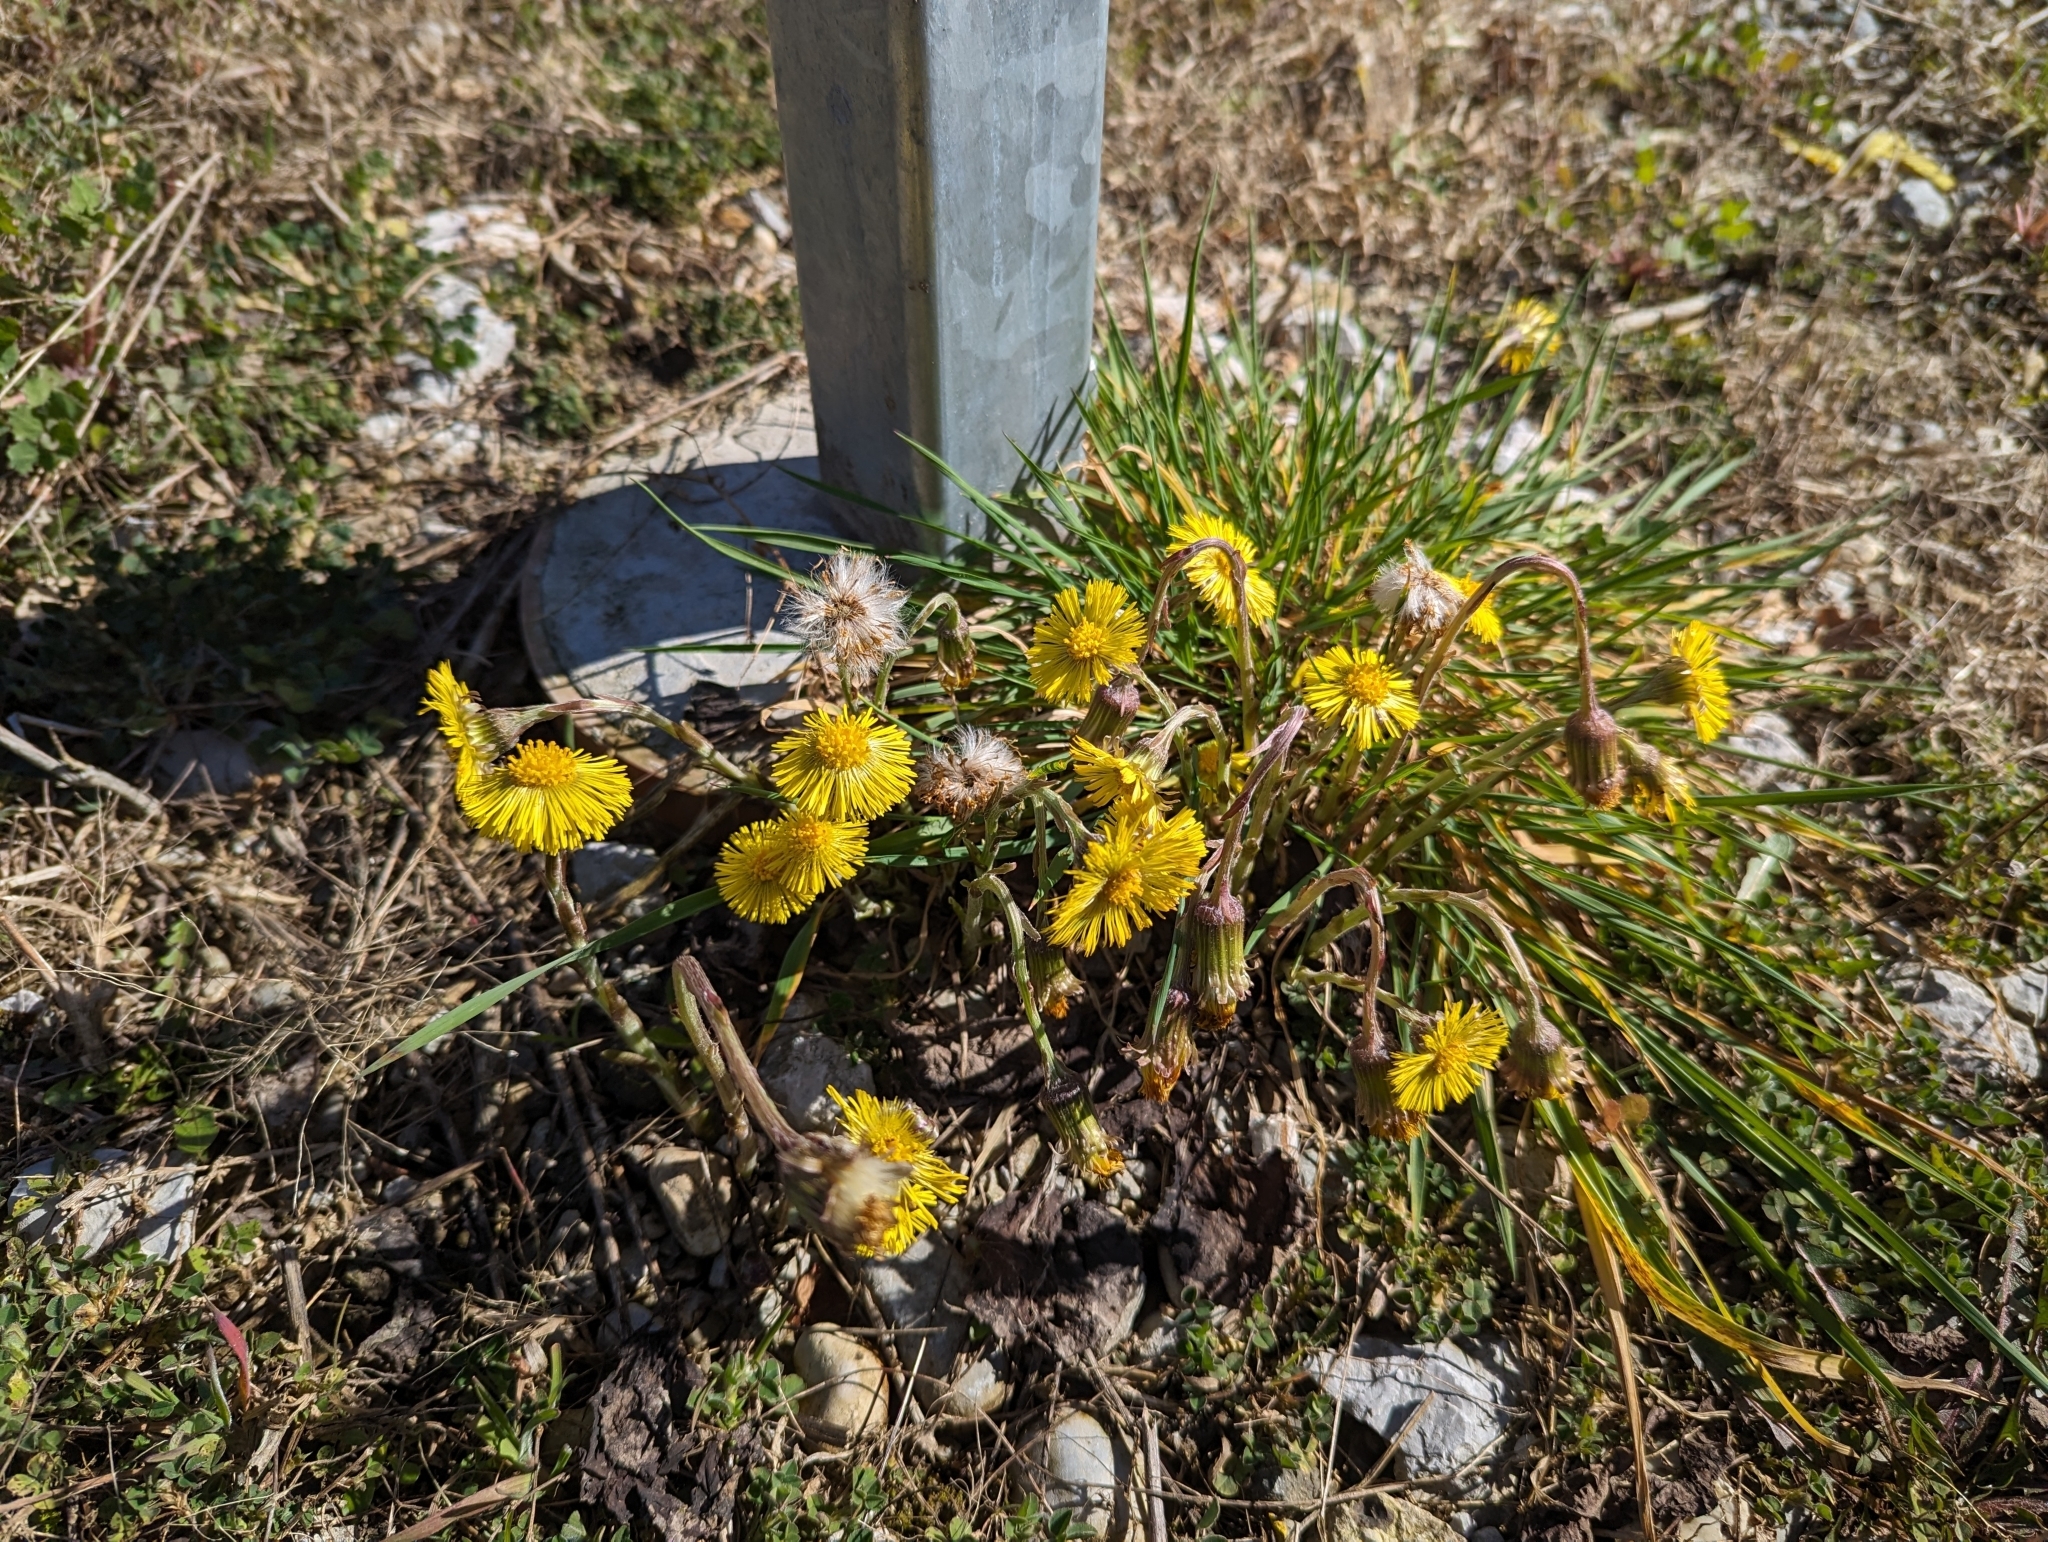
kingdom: Plantae
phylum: Tracheophyta
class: Magnoliopsida
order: Asterales
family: Asteraceae
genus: Tussilago
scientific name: Tussilago farfara
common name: Coltsfoot
